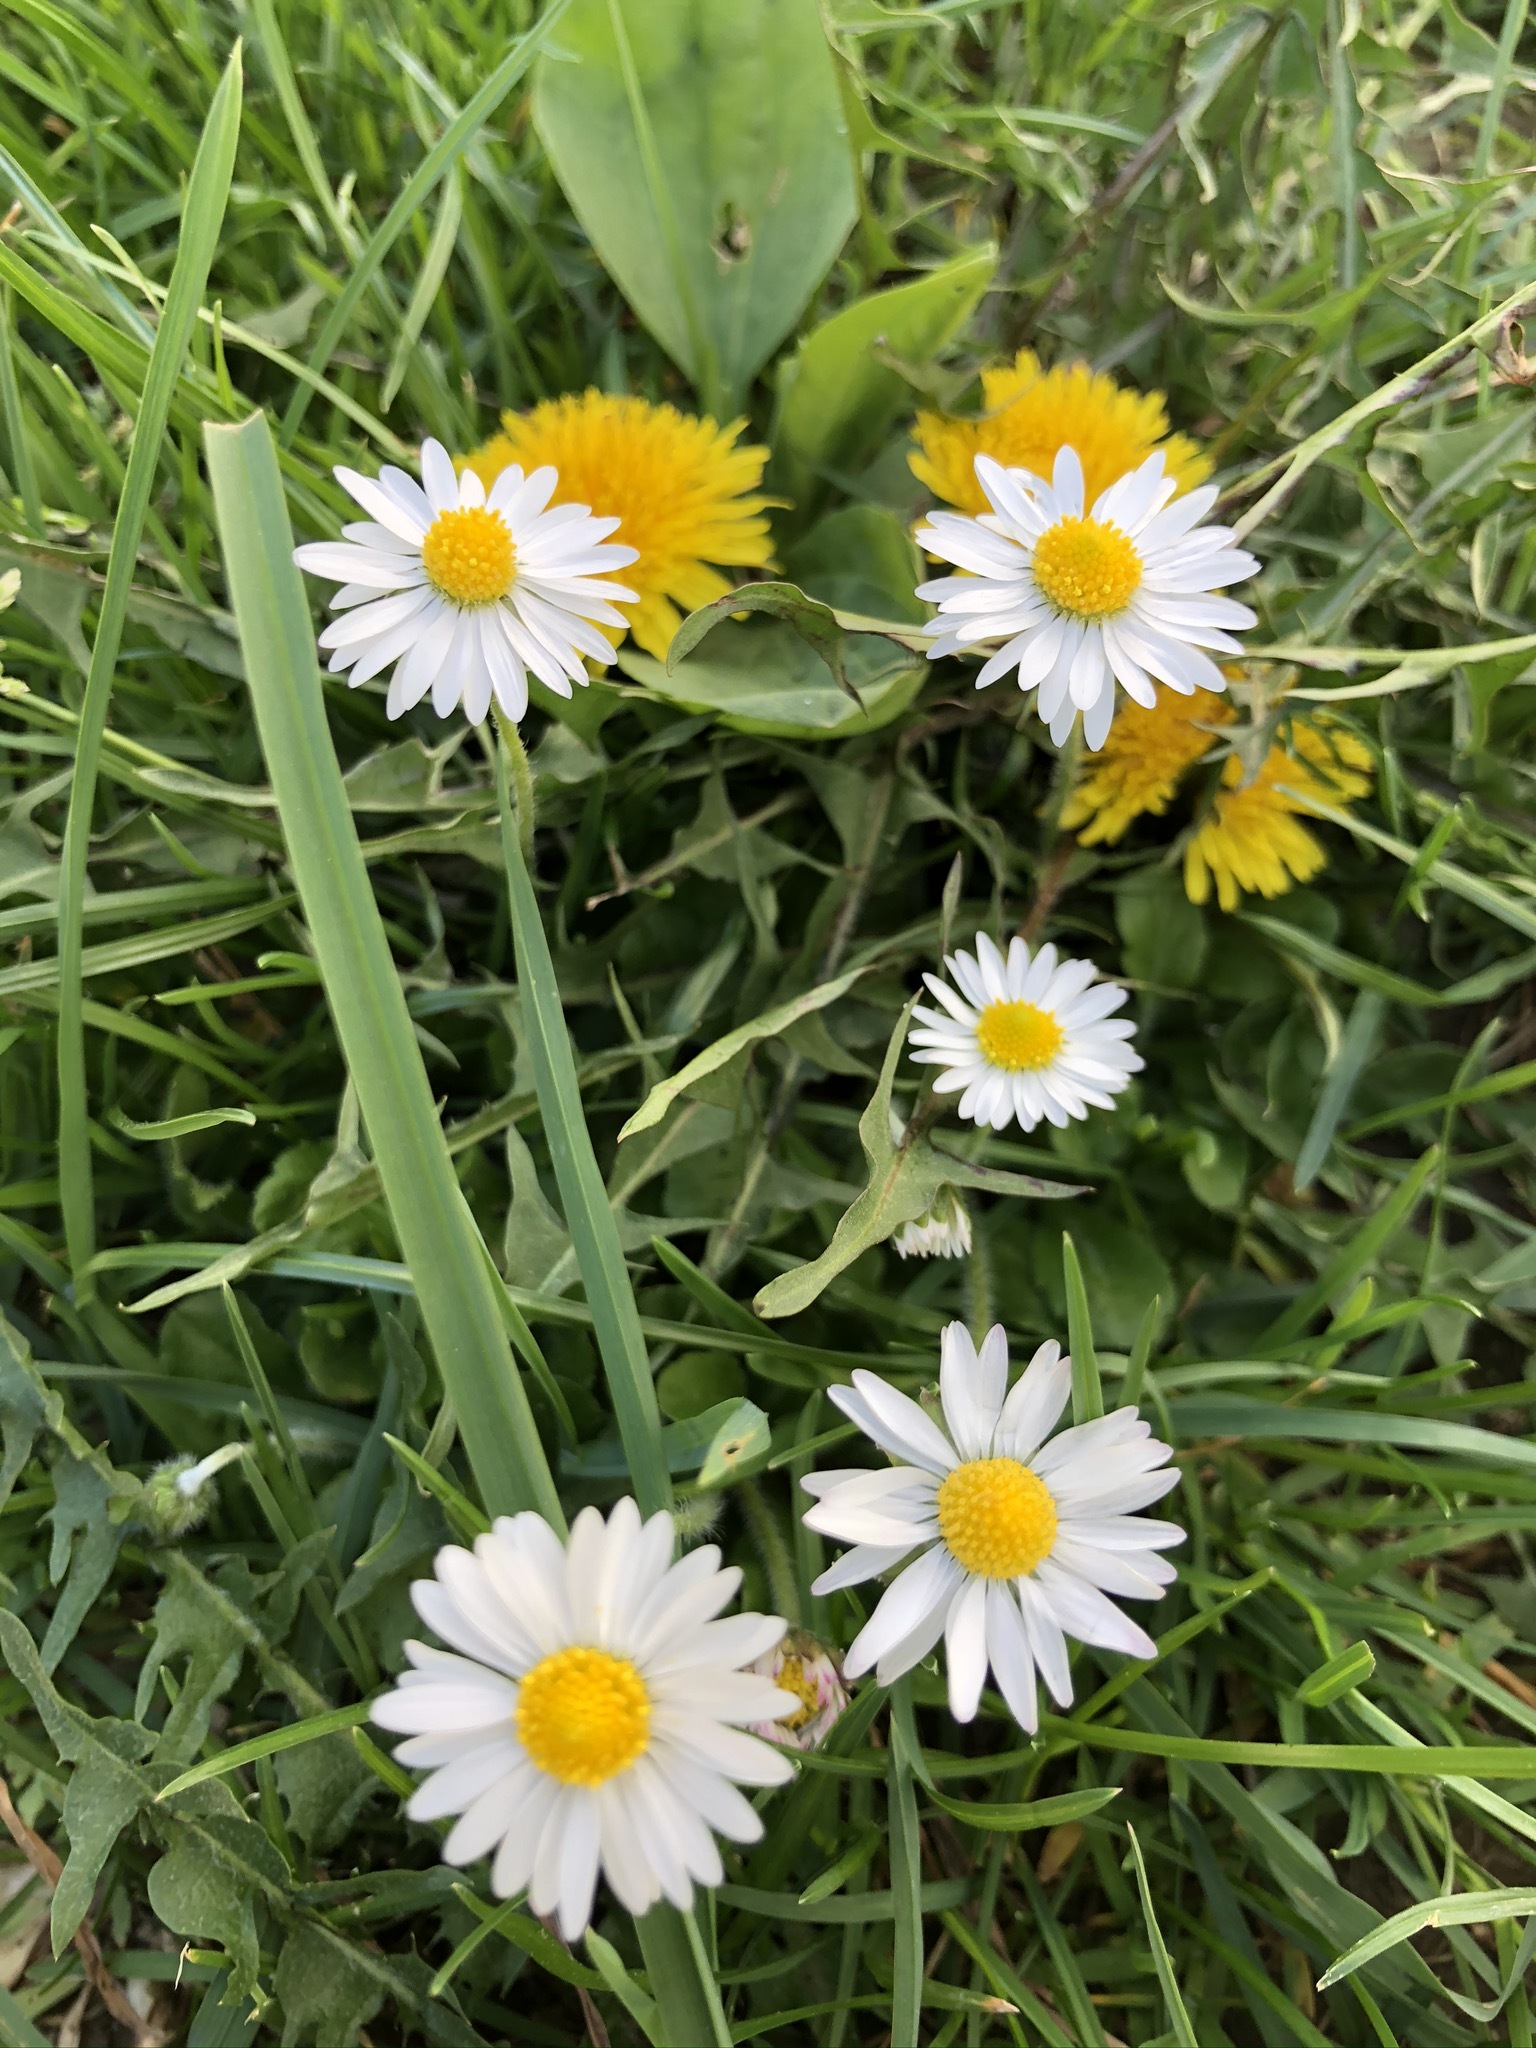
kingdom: Plantae
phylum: Tracheophyta
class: Magnoliopsida
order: Asterales
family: Asteraceae
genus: Bellis
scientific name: Bellis perennis
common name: Lawndaisy
